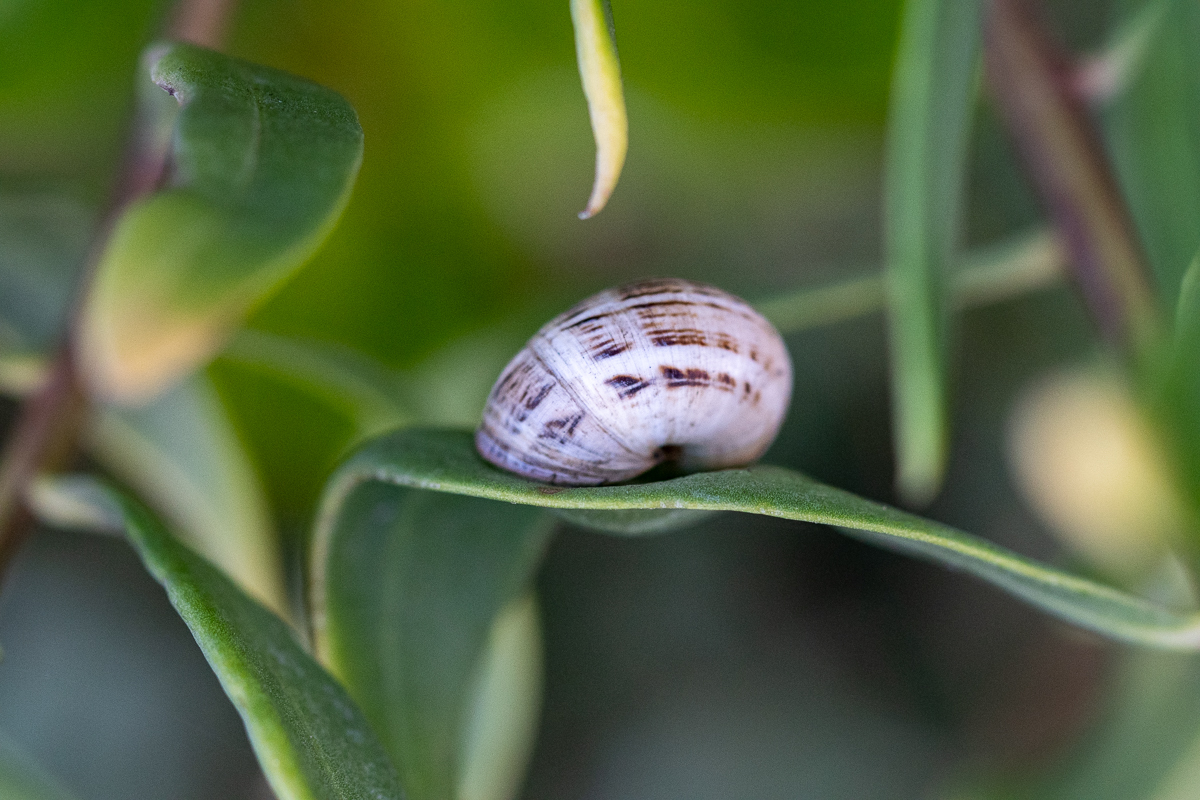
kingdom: Animalia
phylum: Mollusca
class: Gastropoda
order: Stylommatophora
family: Helicidae
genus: Theba
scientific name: Theba pisana
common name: White snail
